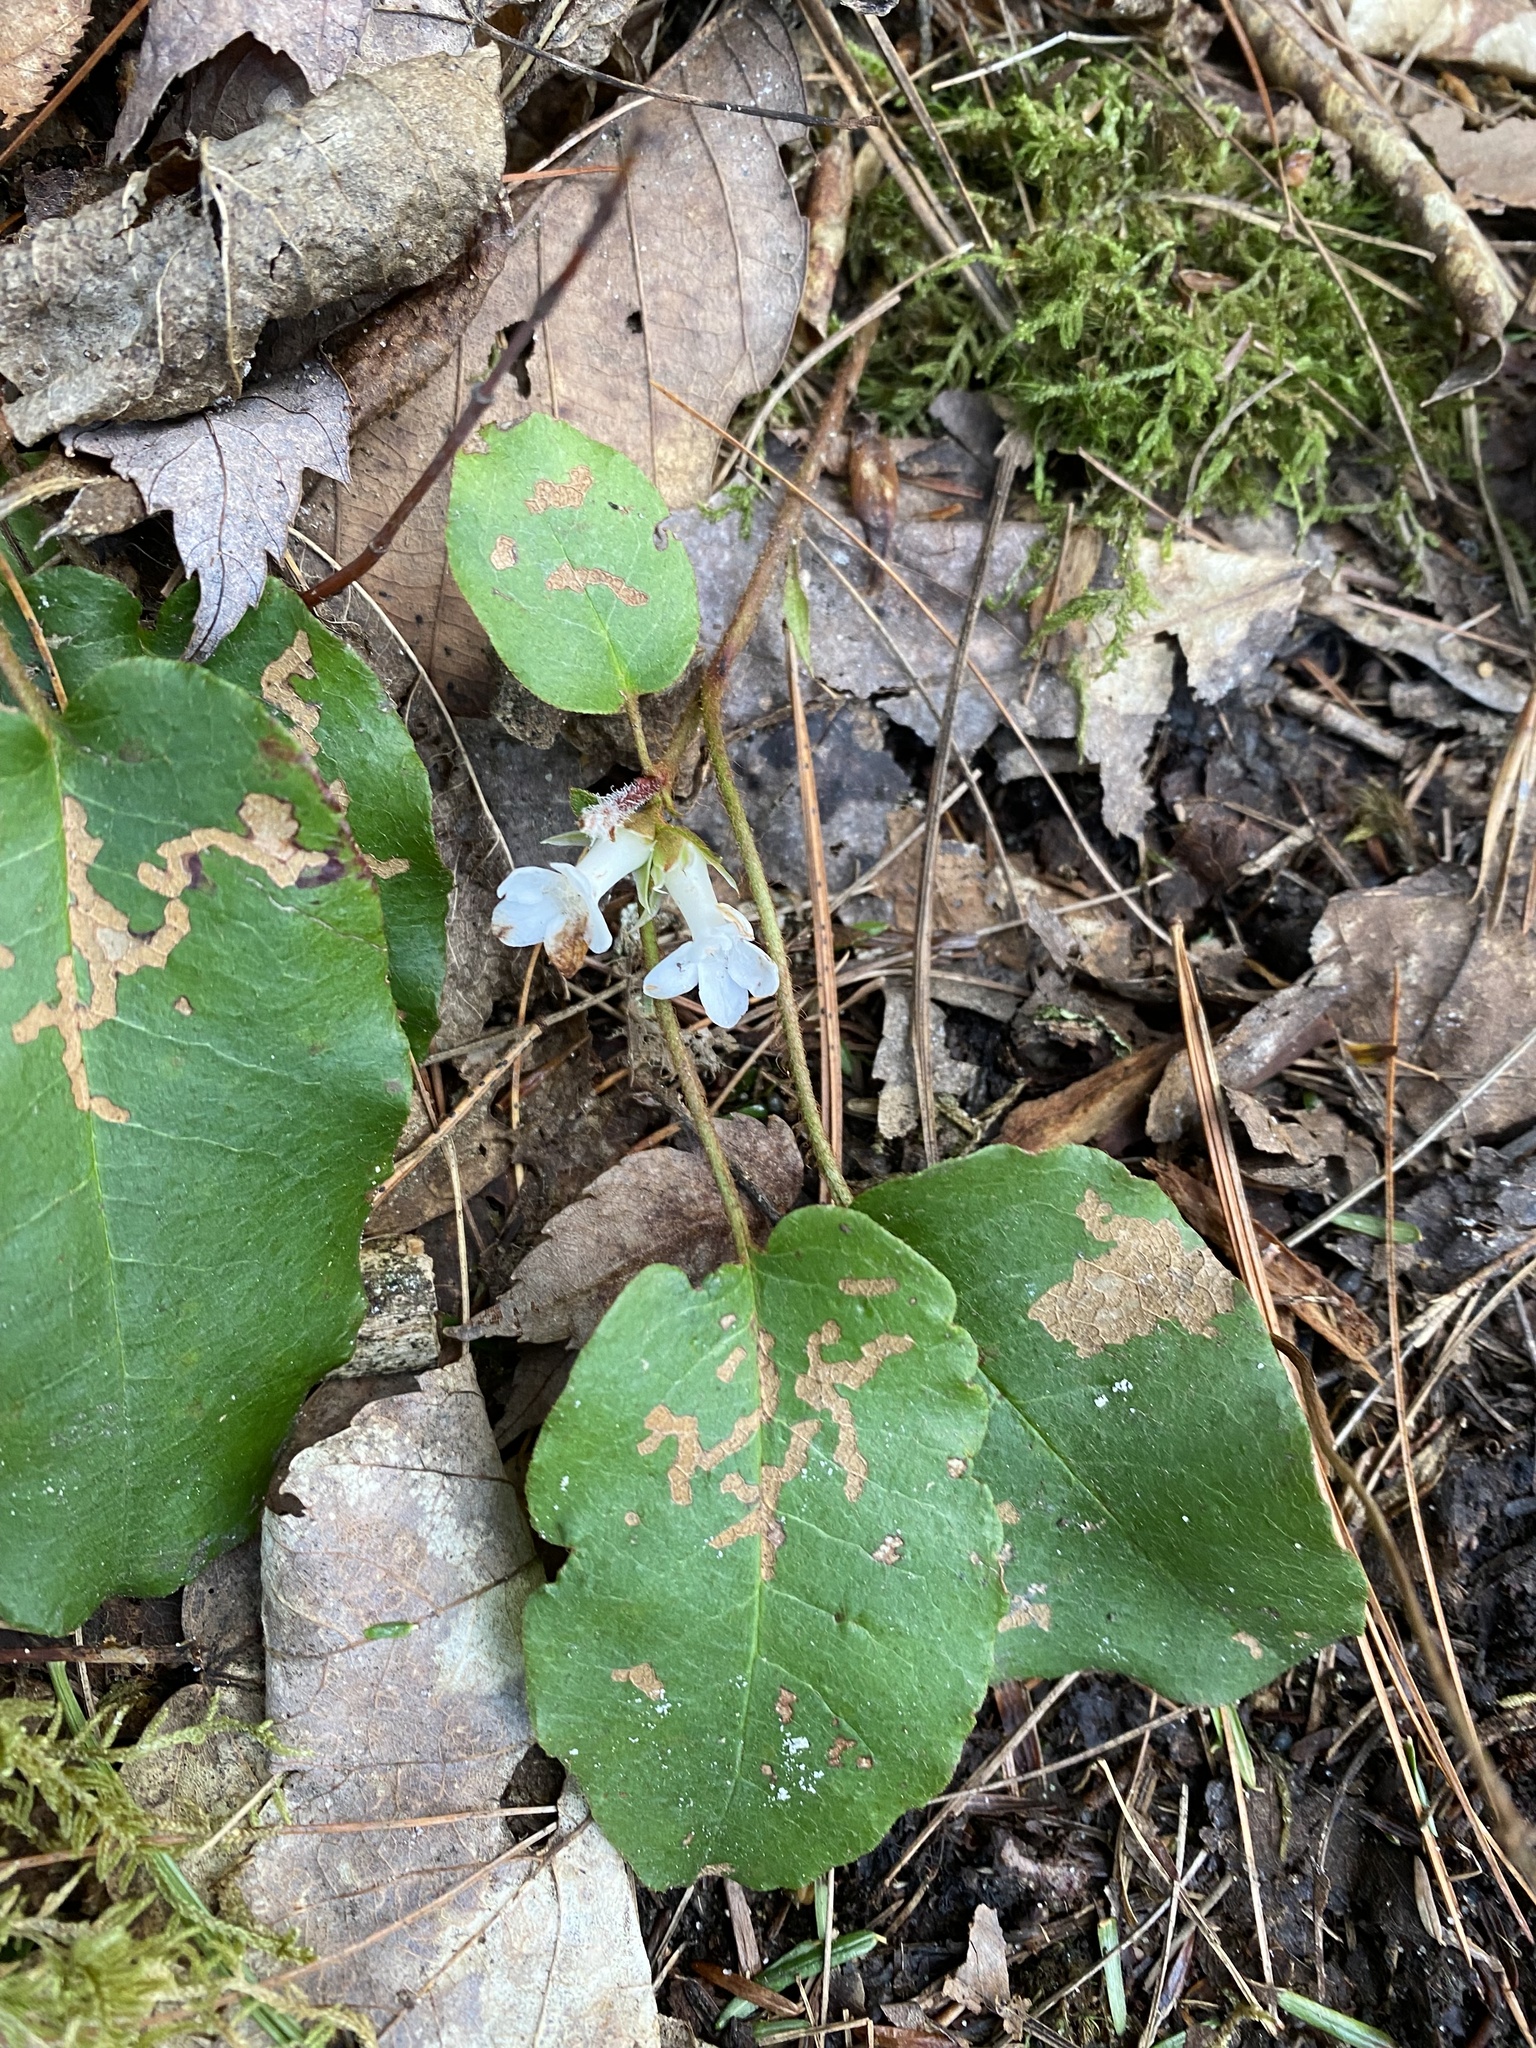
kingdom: Plantae
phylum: Tracheophyta
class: Magnoliopsida
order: Ericales
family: Ericaceae
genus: Epigaea
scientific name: Epigaea repens
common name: Gravelroot
